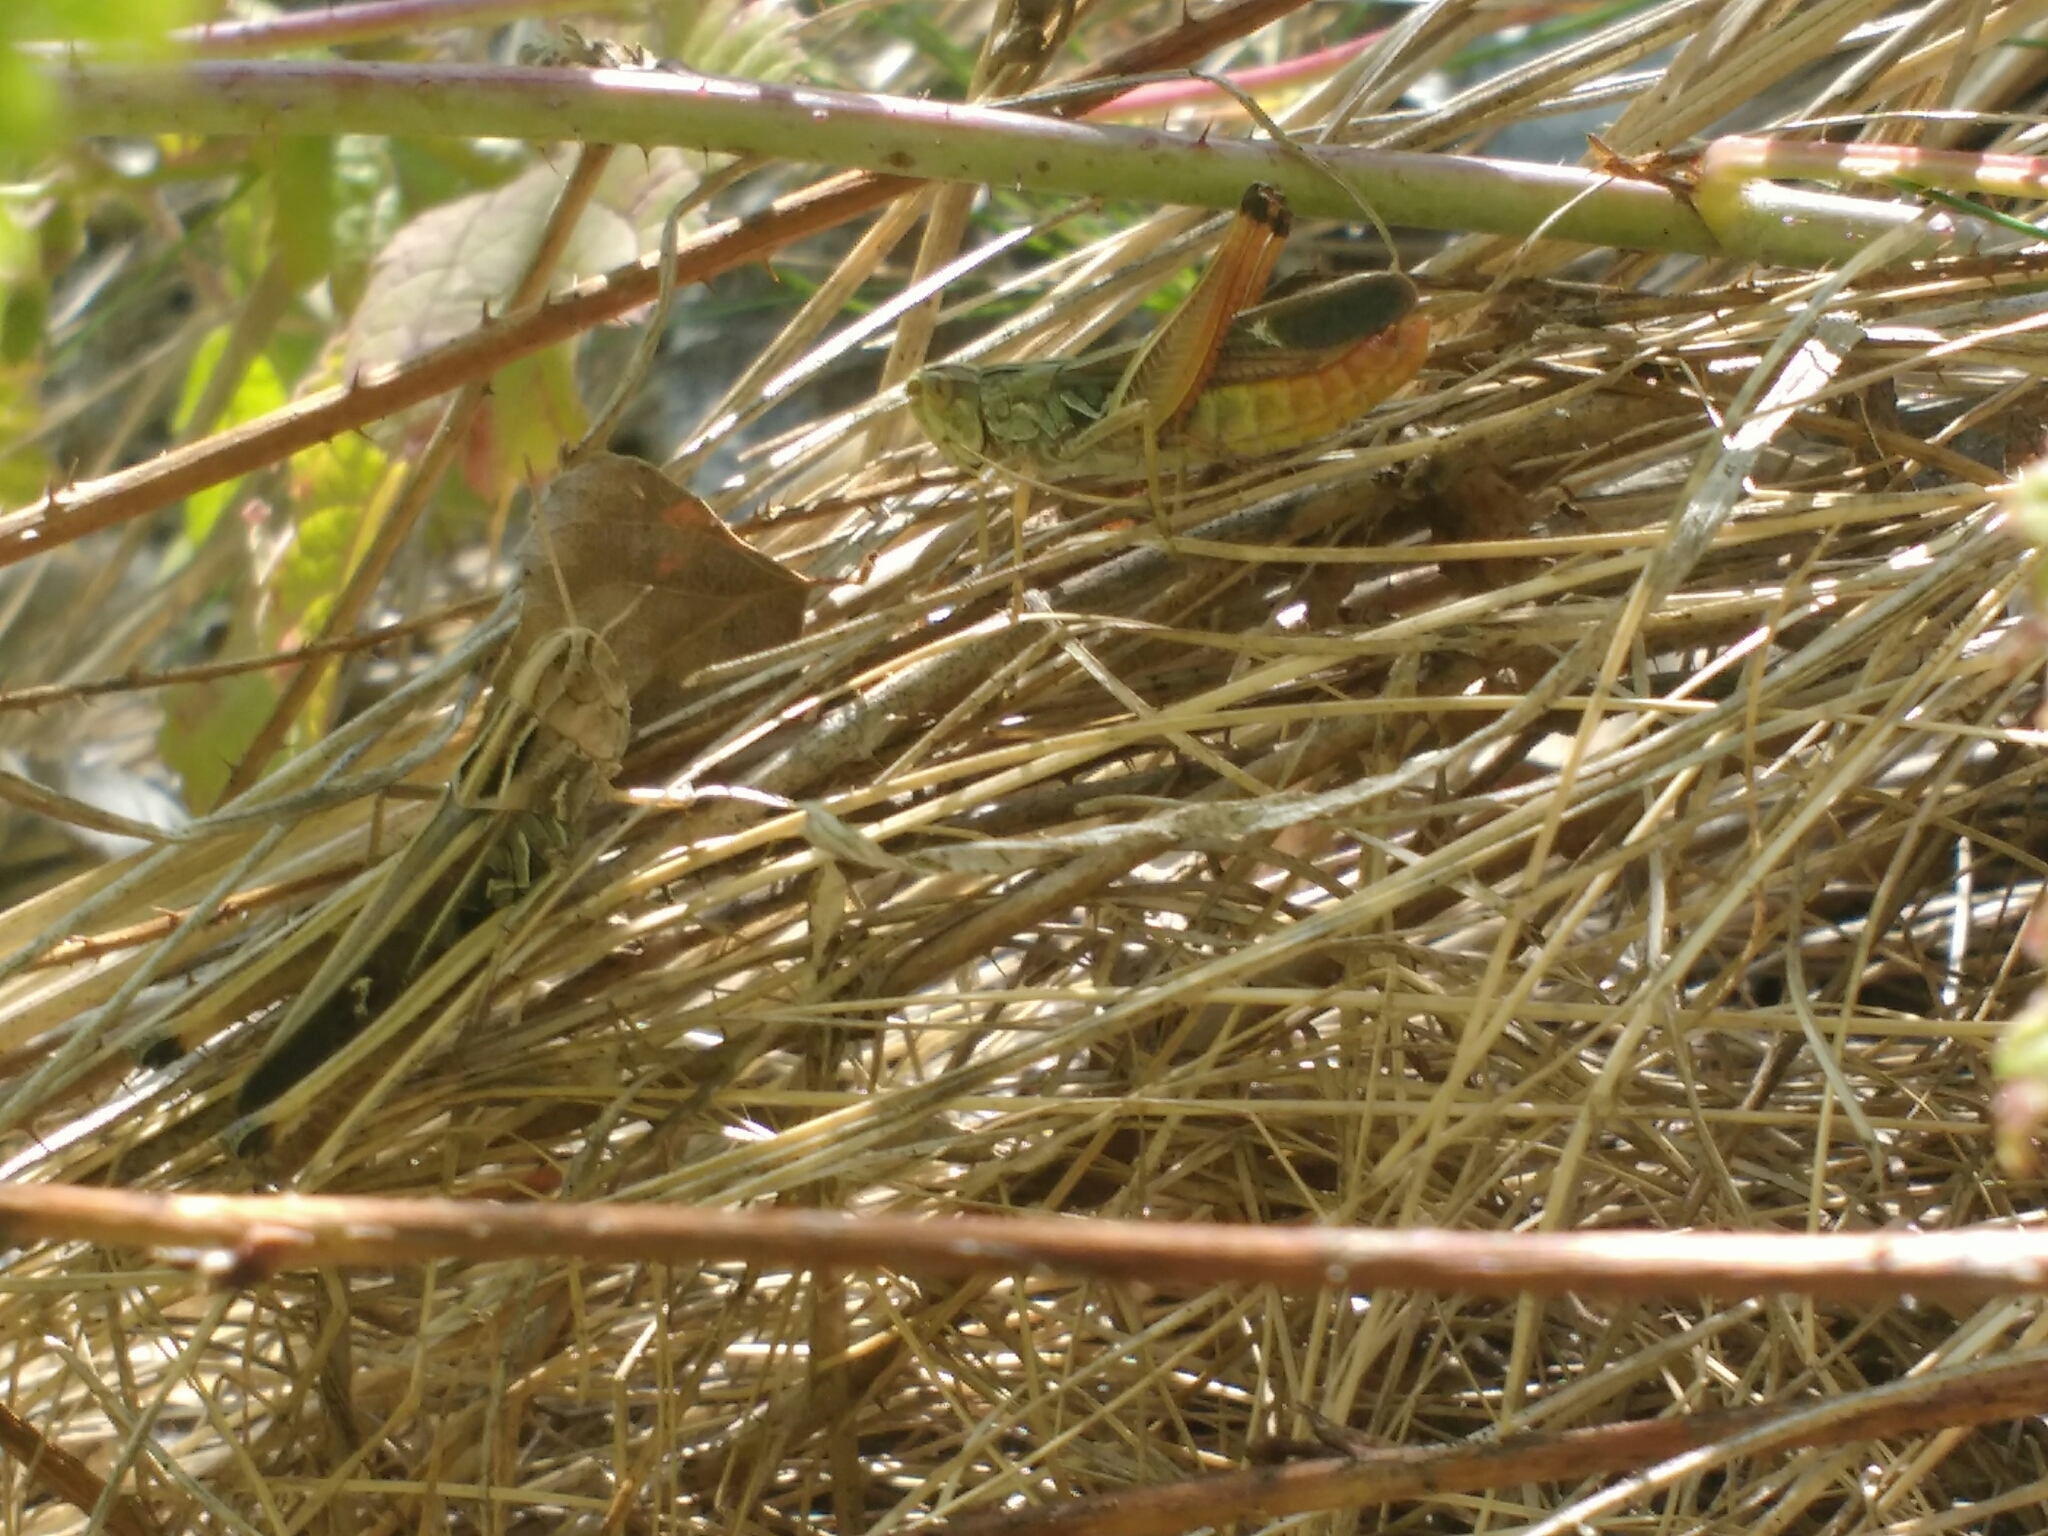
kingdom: Animalia
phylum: Arthropoda
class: Insecta
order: Orthoptera
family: Acrididae
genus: Stenobothrus
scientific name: Stenobothrus lineatus
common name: Stripe-winged grasshopper
